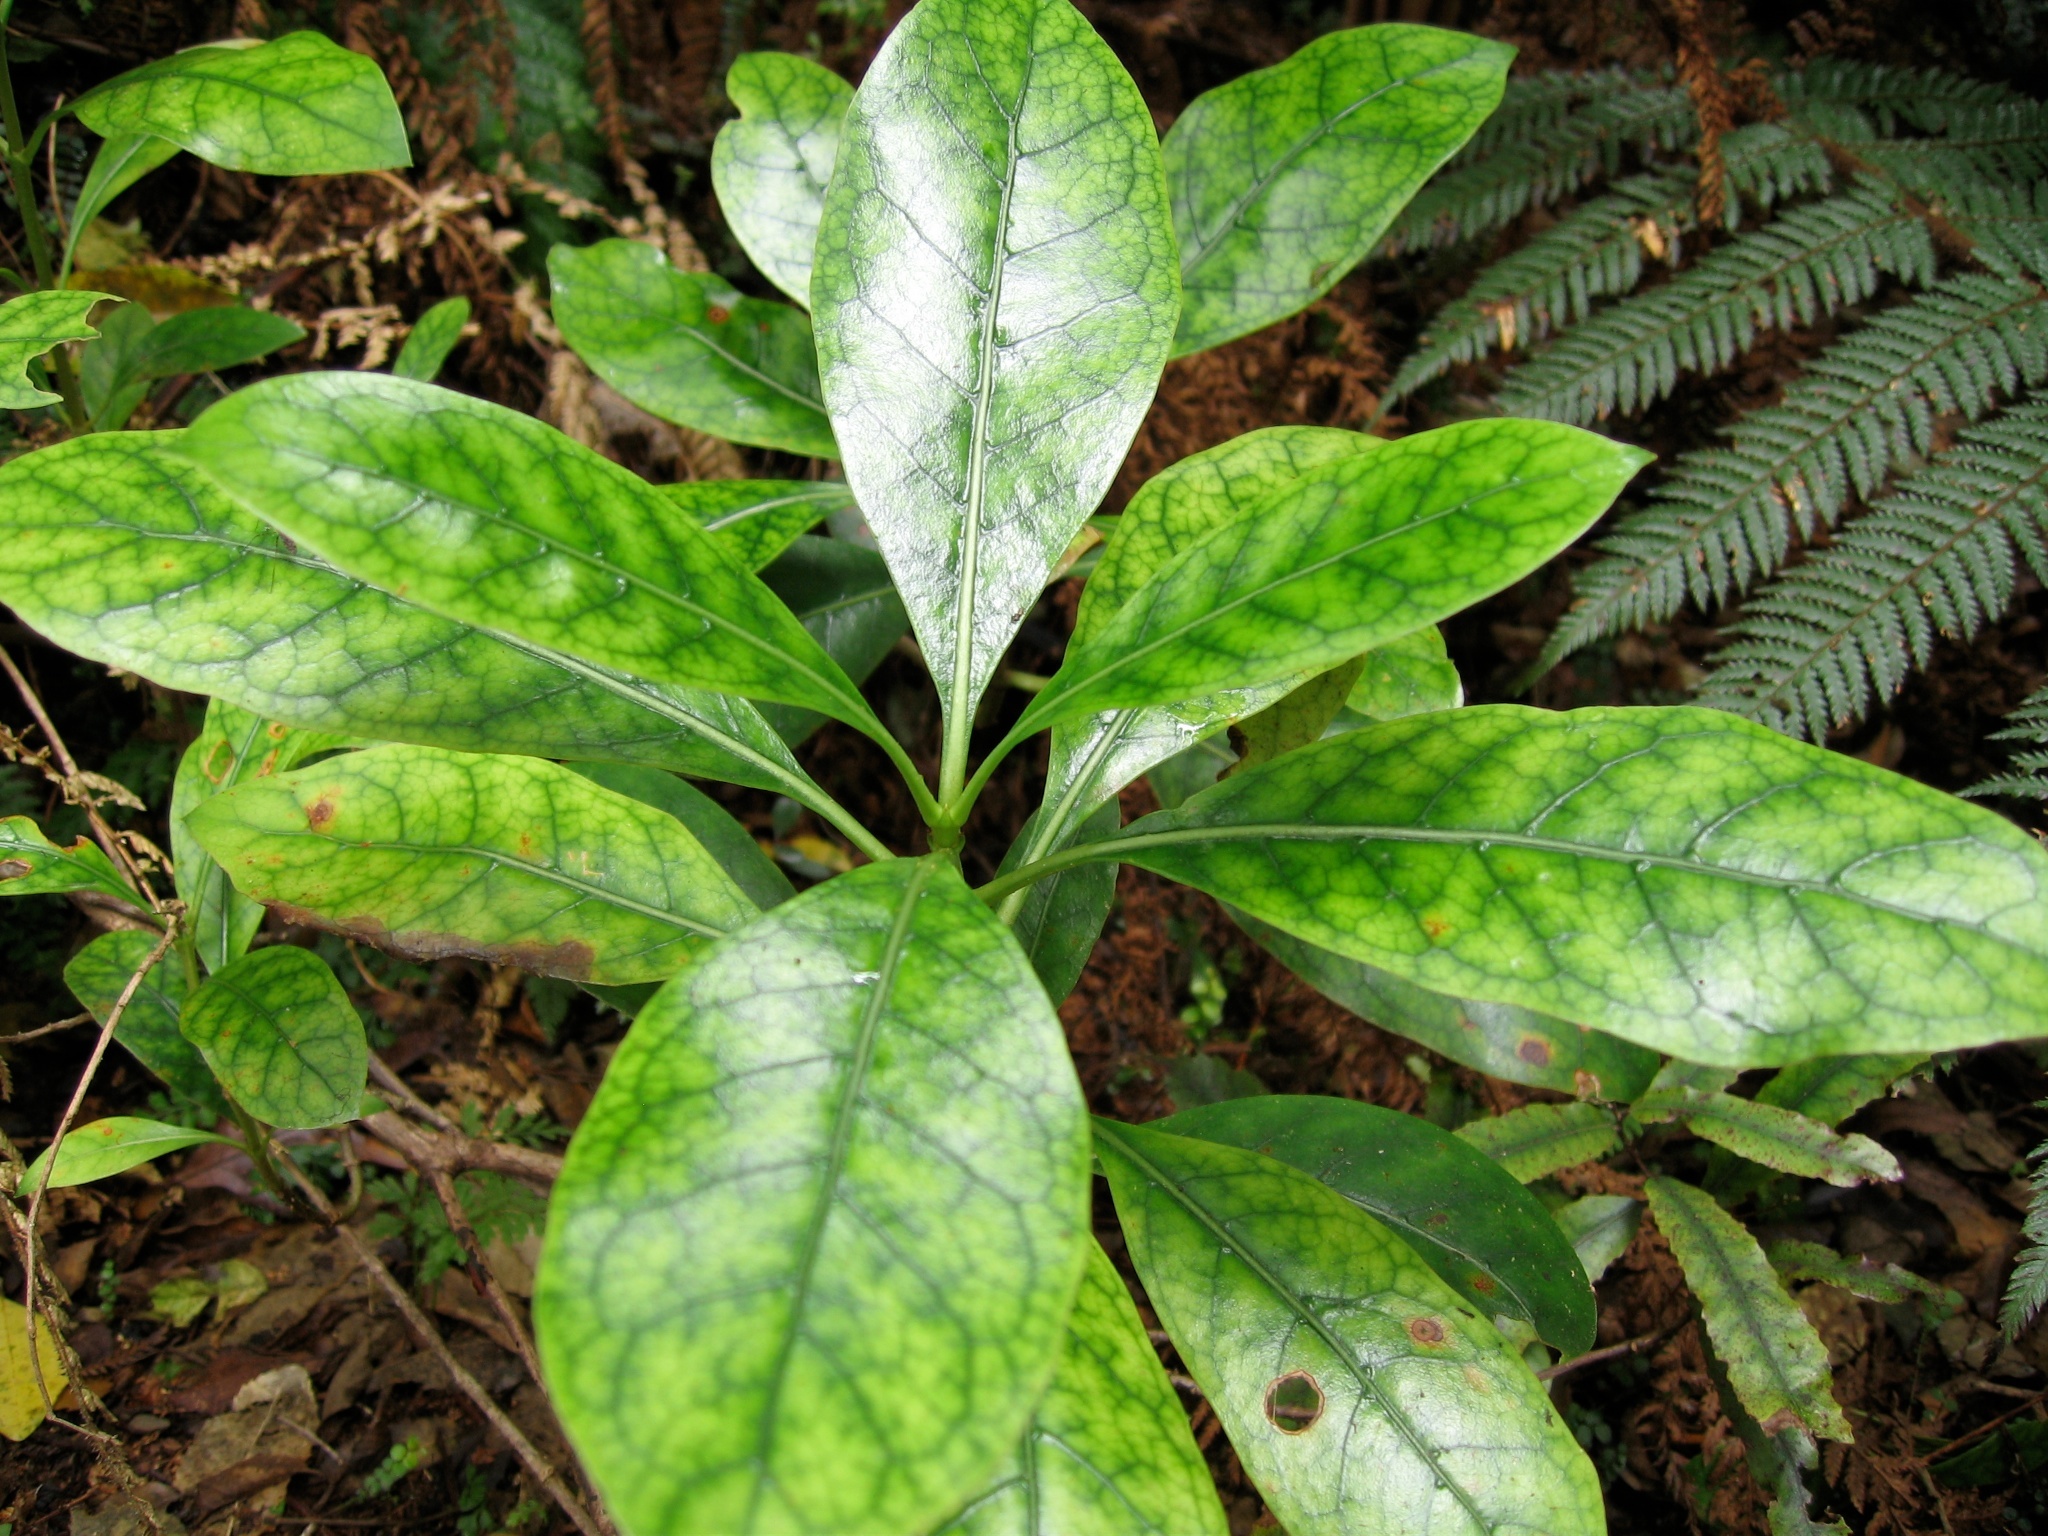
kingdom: Plantae
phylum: Tracheophyta
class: Magnoliopsida
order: Gentianales
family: Rubiaceae
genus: Coprosma
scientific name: Coprosma lucida
